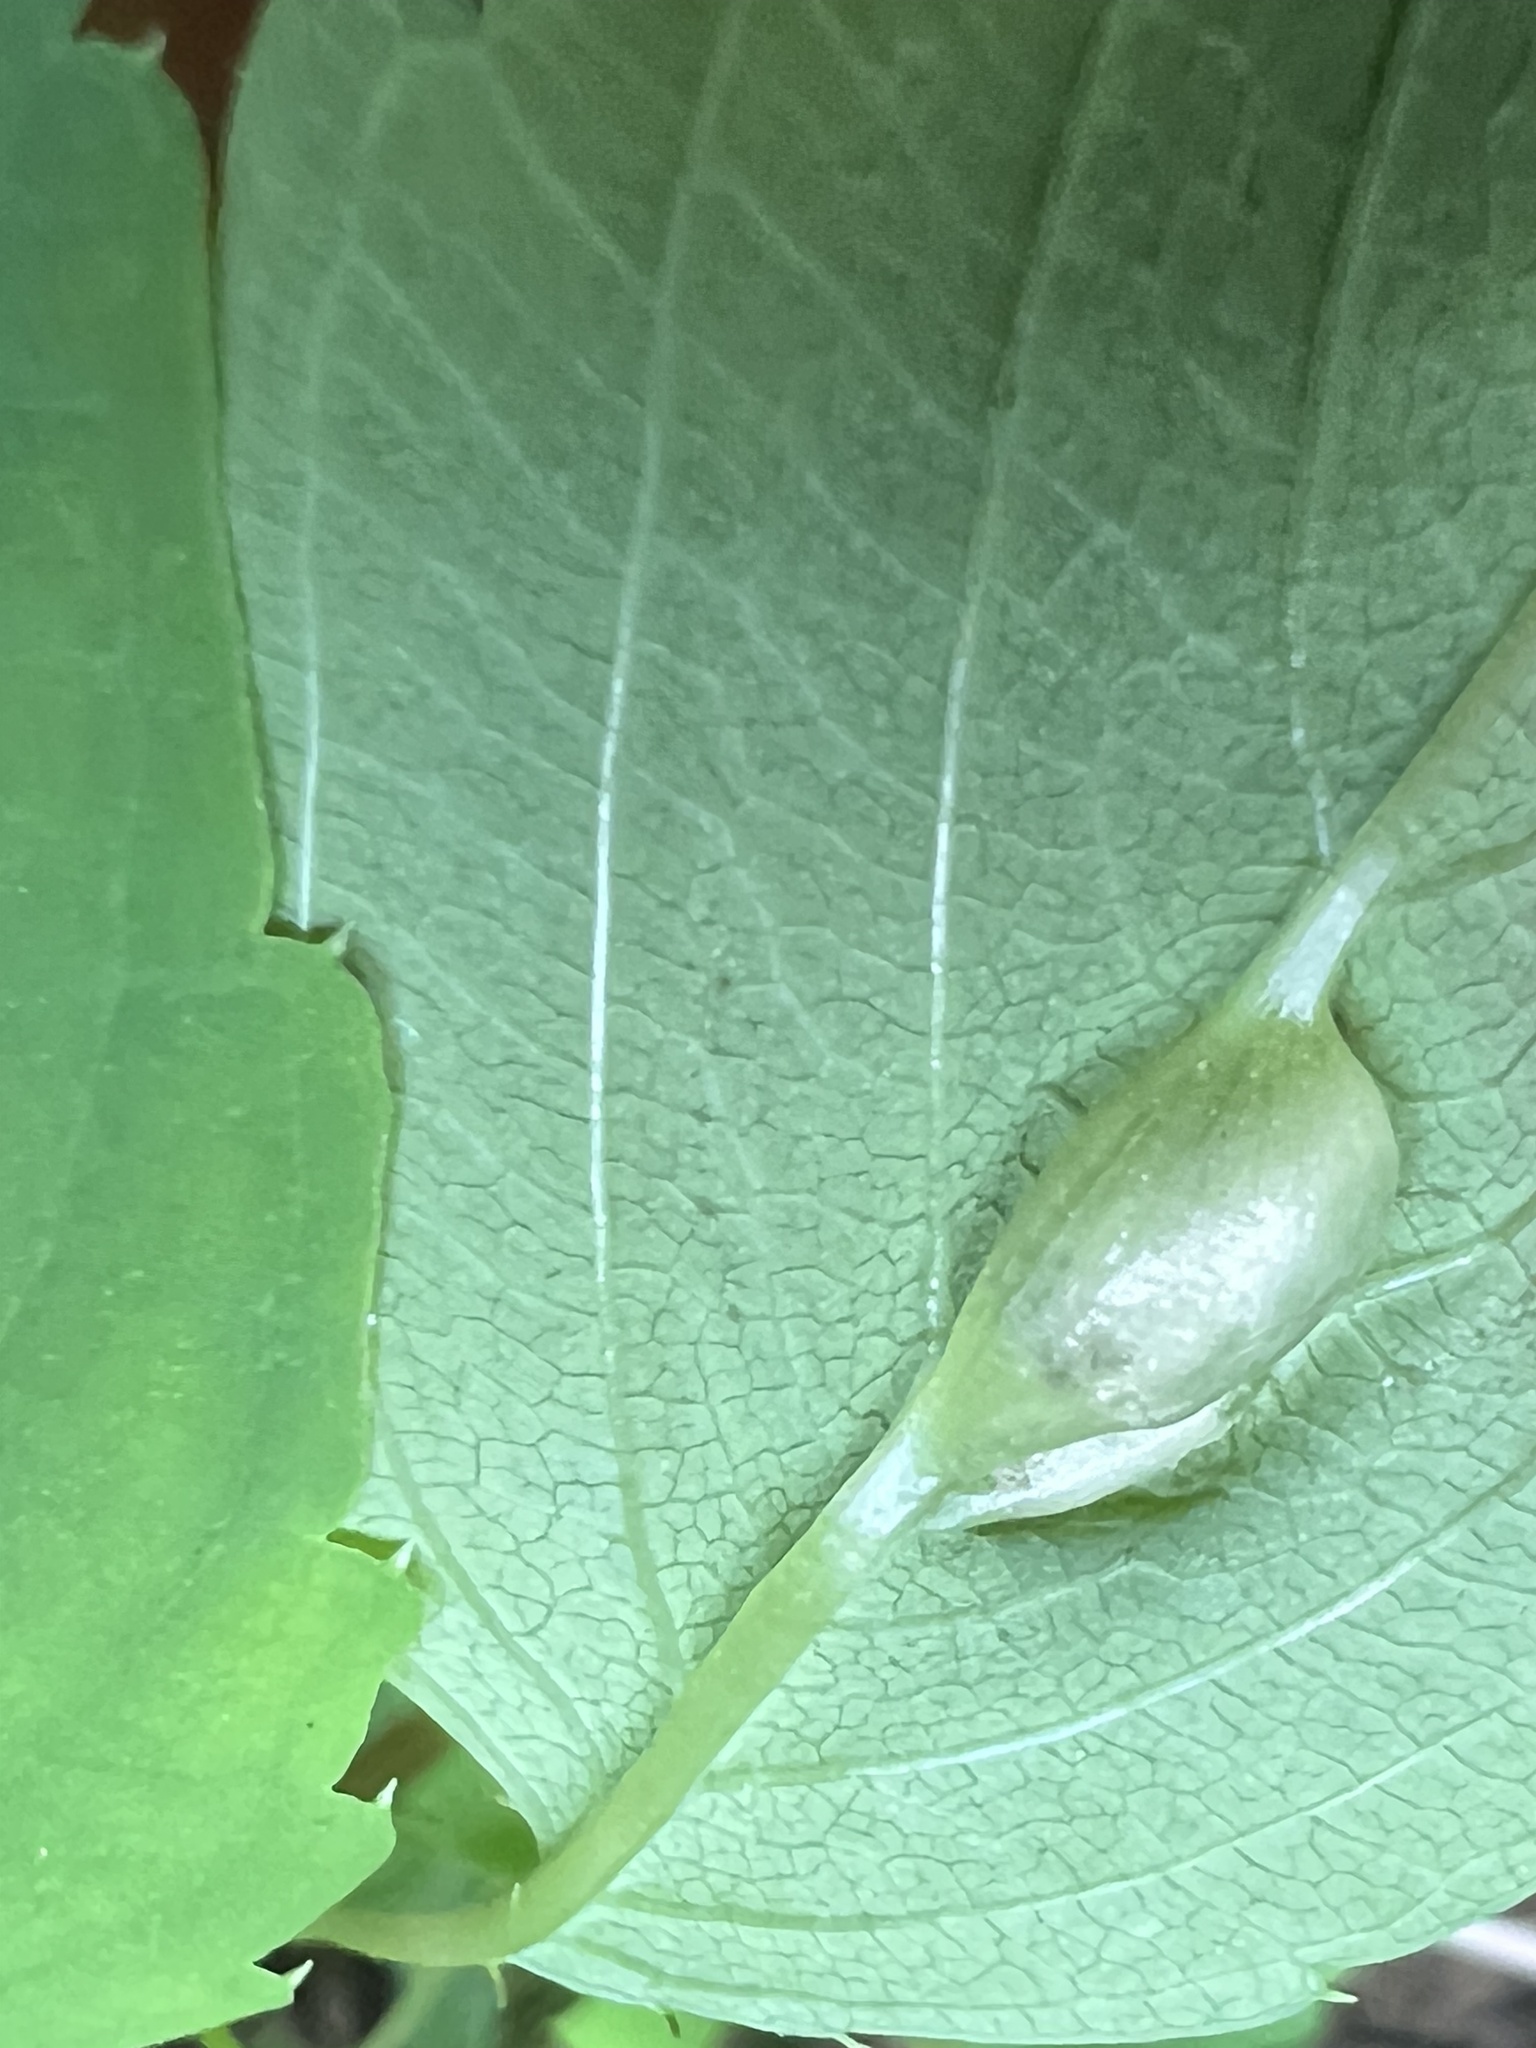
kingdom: Animalia
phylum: Arthropoda
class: Insecta
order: Diptera
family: Cecidomyiidae
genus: Neolasioptera
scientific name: Neolasioptera impatientifolia
